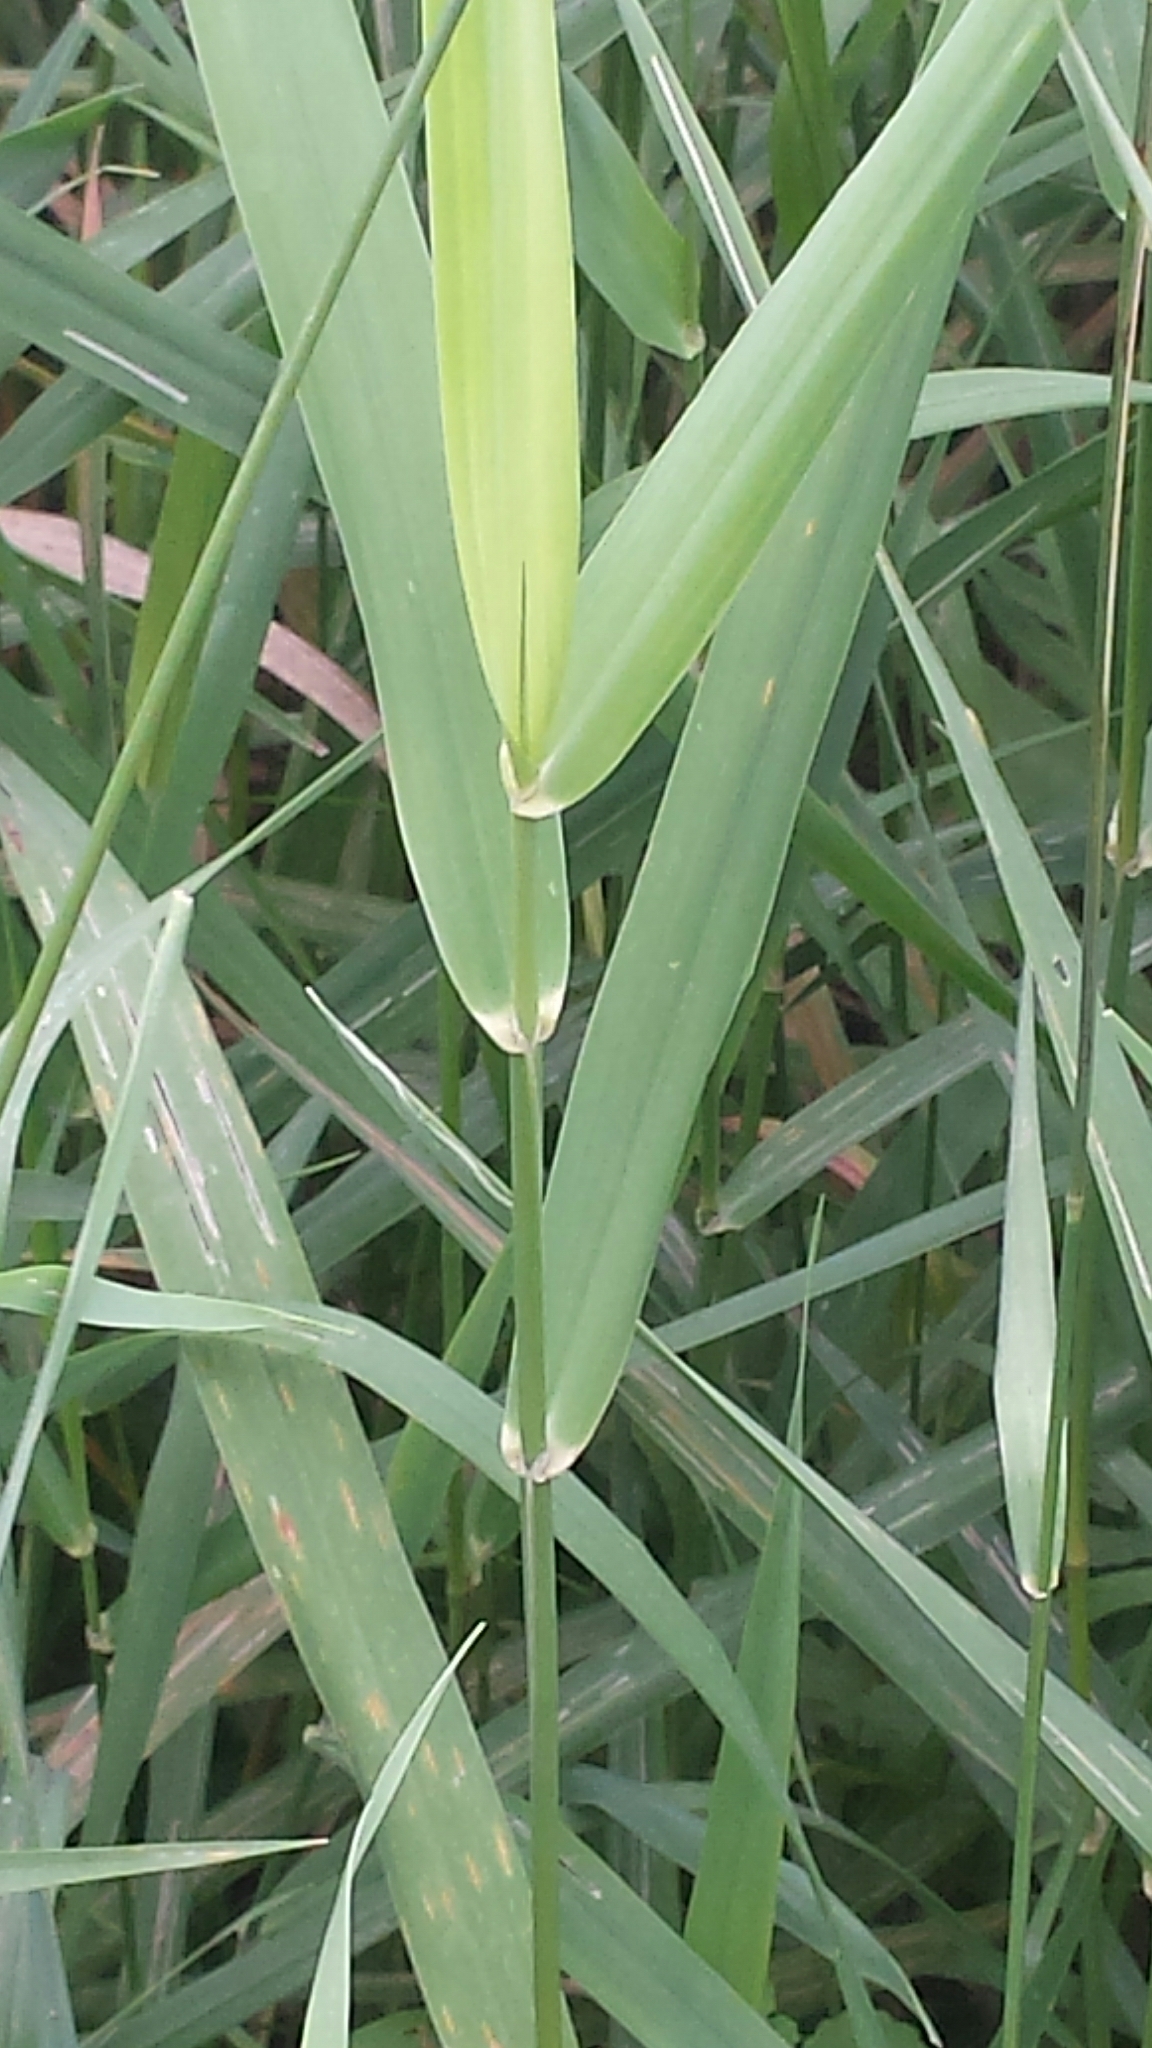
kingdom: Plantae
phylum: Tracheophyta
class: Liliopsida
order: Poales
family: Poaceae
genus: Phalaris
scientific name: Phalaris arundinacea
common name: Reed canary-grass
